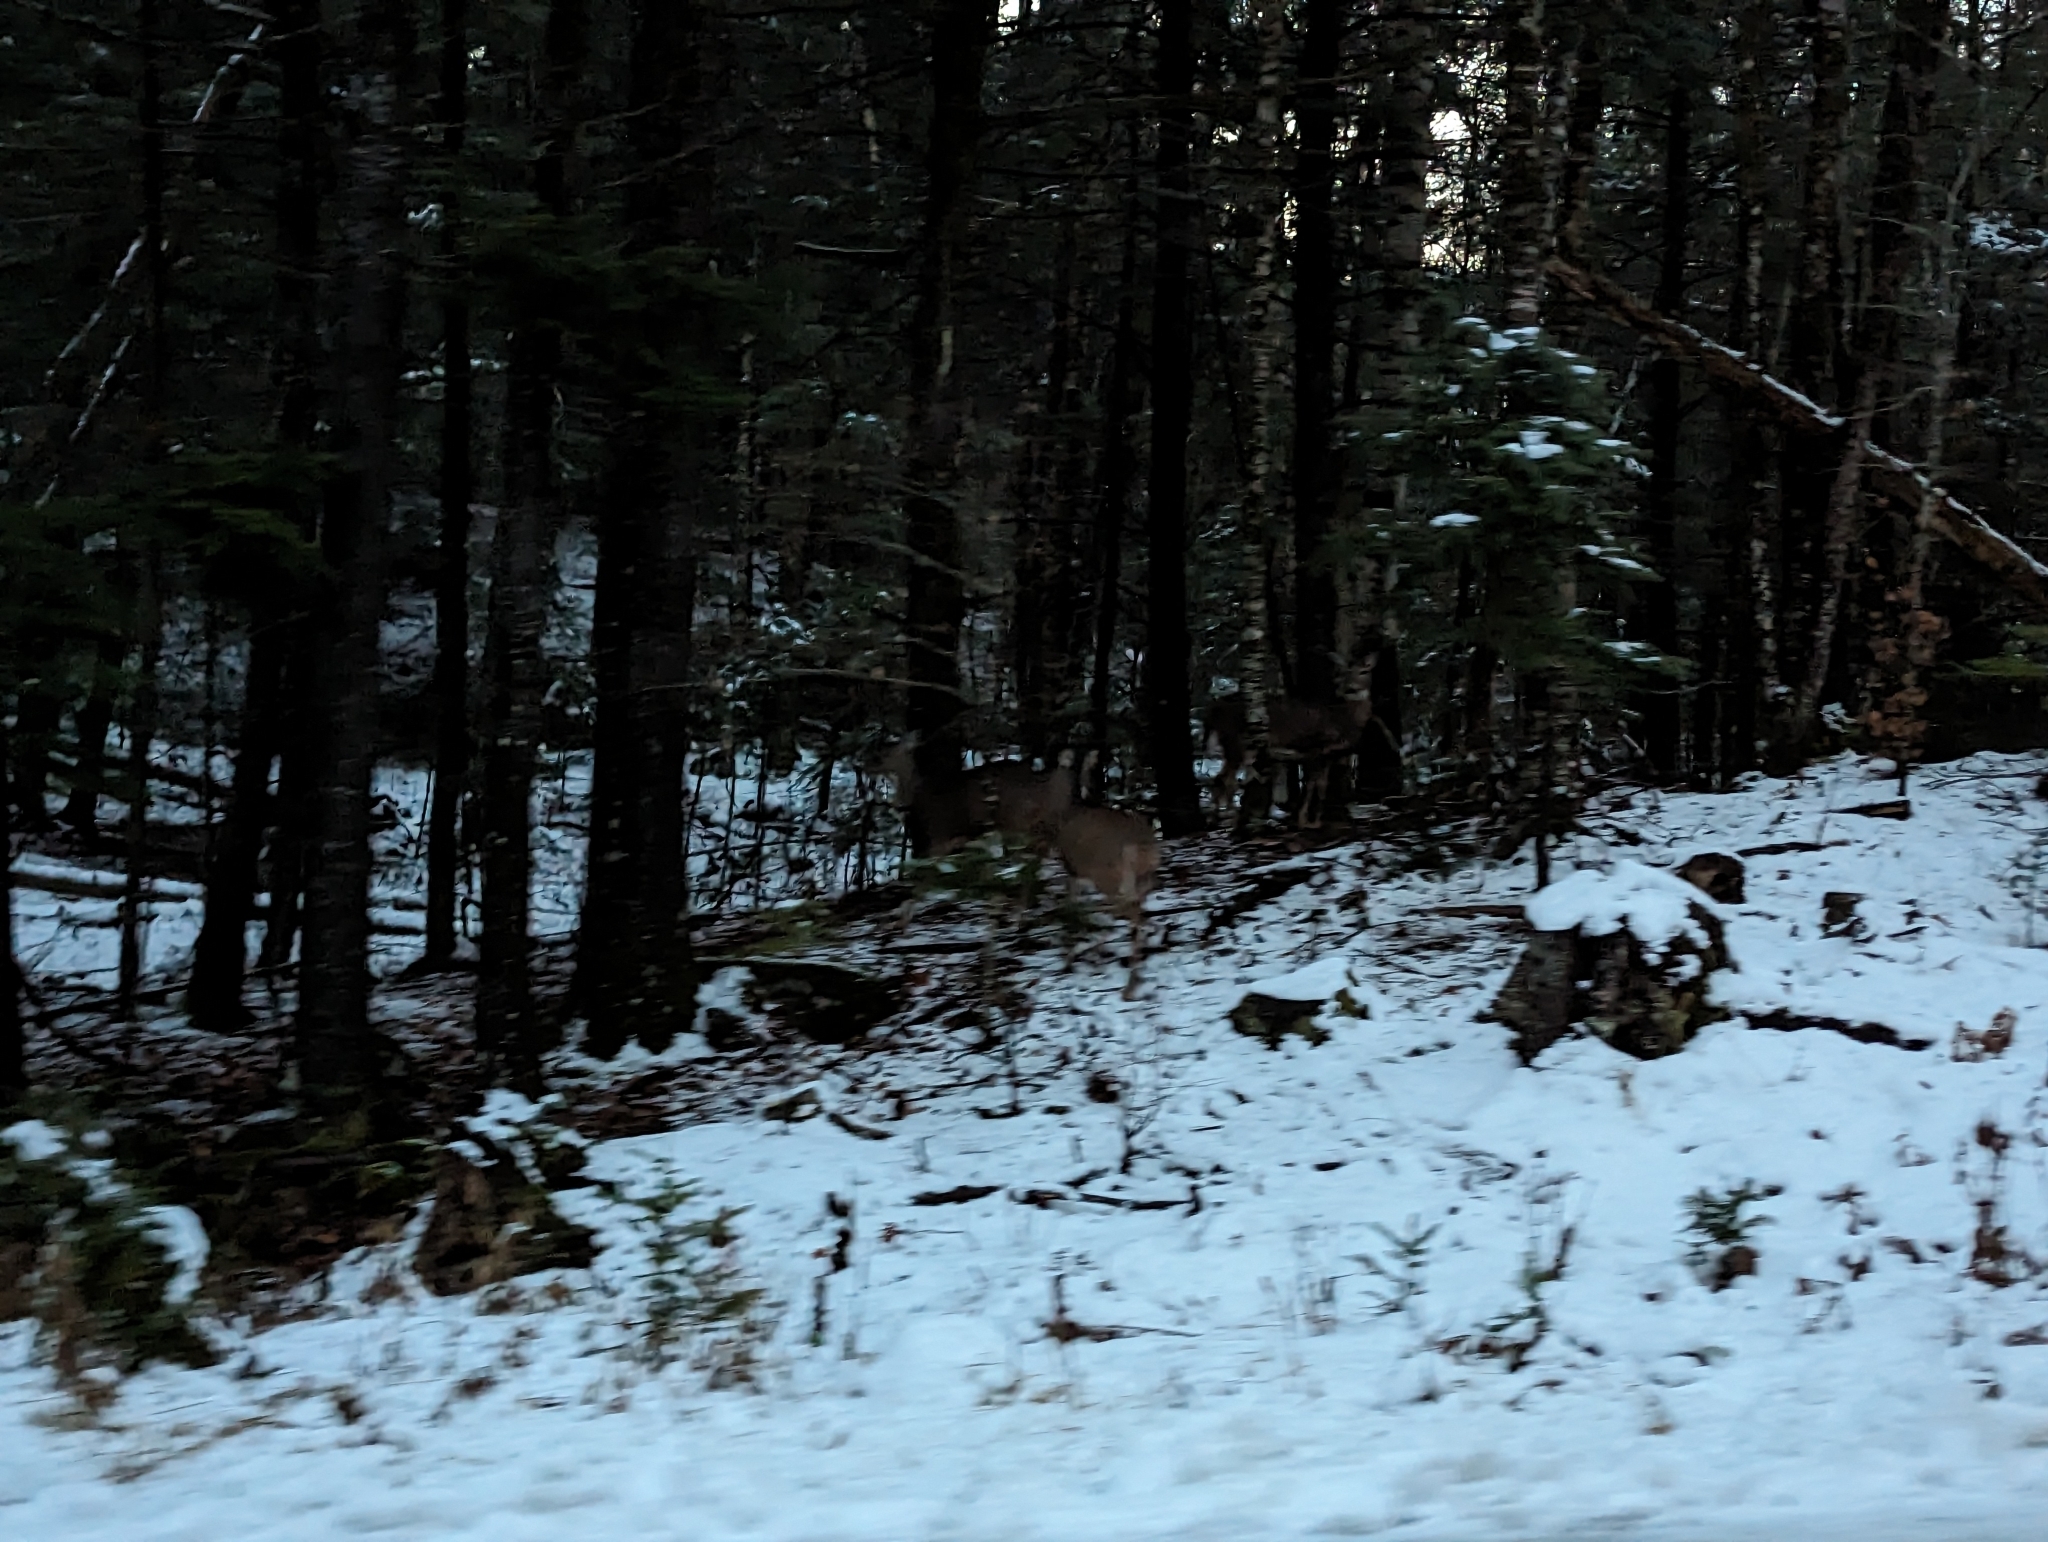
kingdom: Animalia
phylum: Chordata
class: Mammalia
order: Artiodactyla
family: Cervidae
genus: Odocoileus
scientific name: Odocoileus virginianus
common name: White-tailed deer
